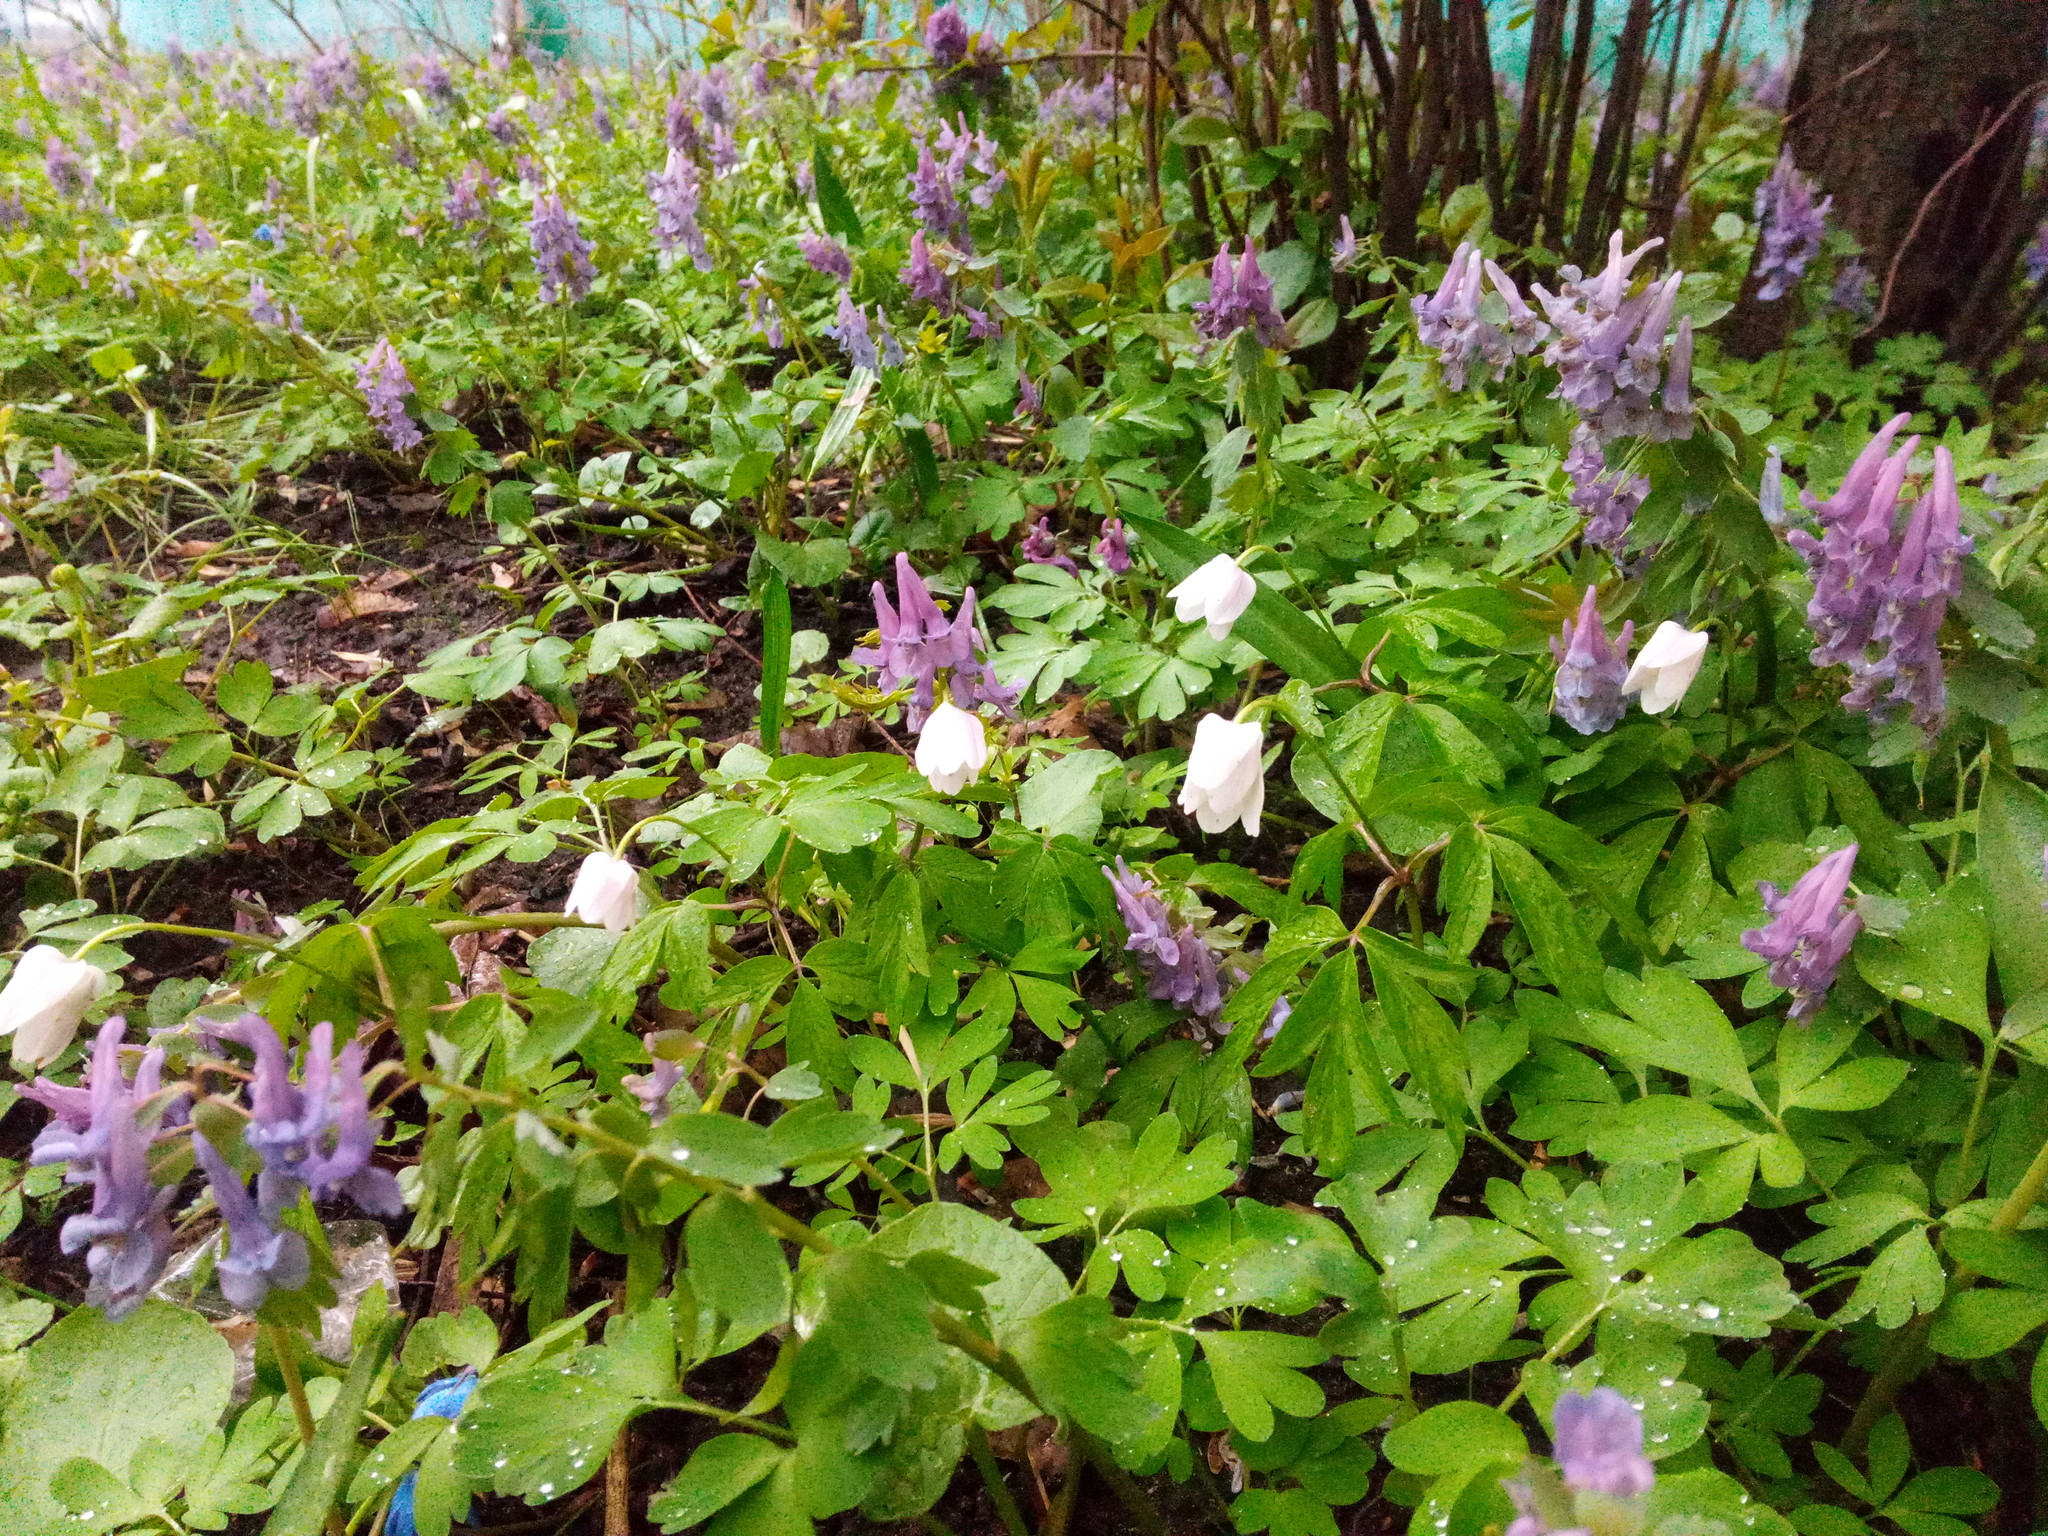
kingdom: Plantae
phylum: Tracheophyta
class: Magnoliopsida
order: Ranunculales
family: Ranunculaceae
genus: Anemone
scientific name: Anemone nemorosa
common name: Wood anemone
